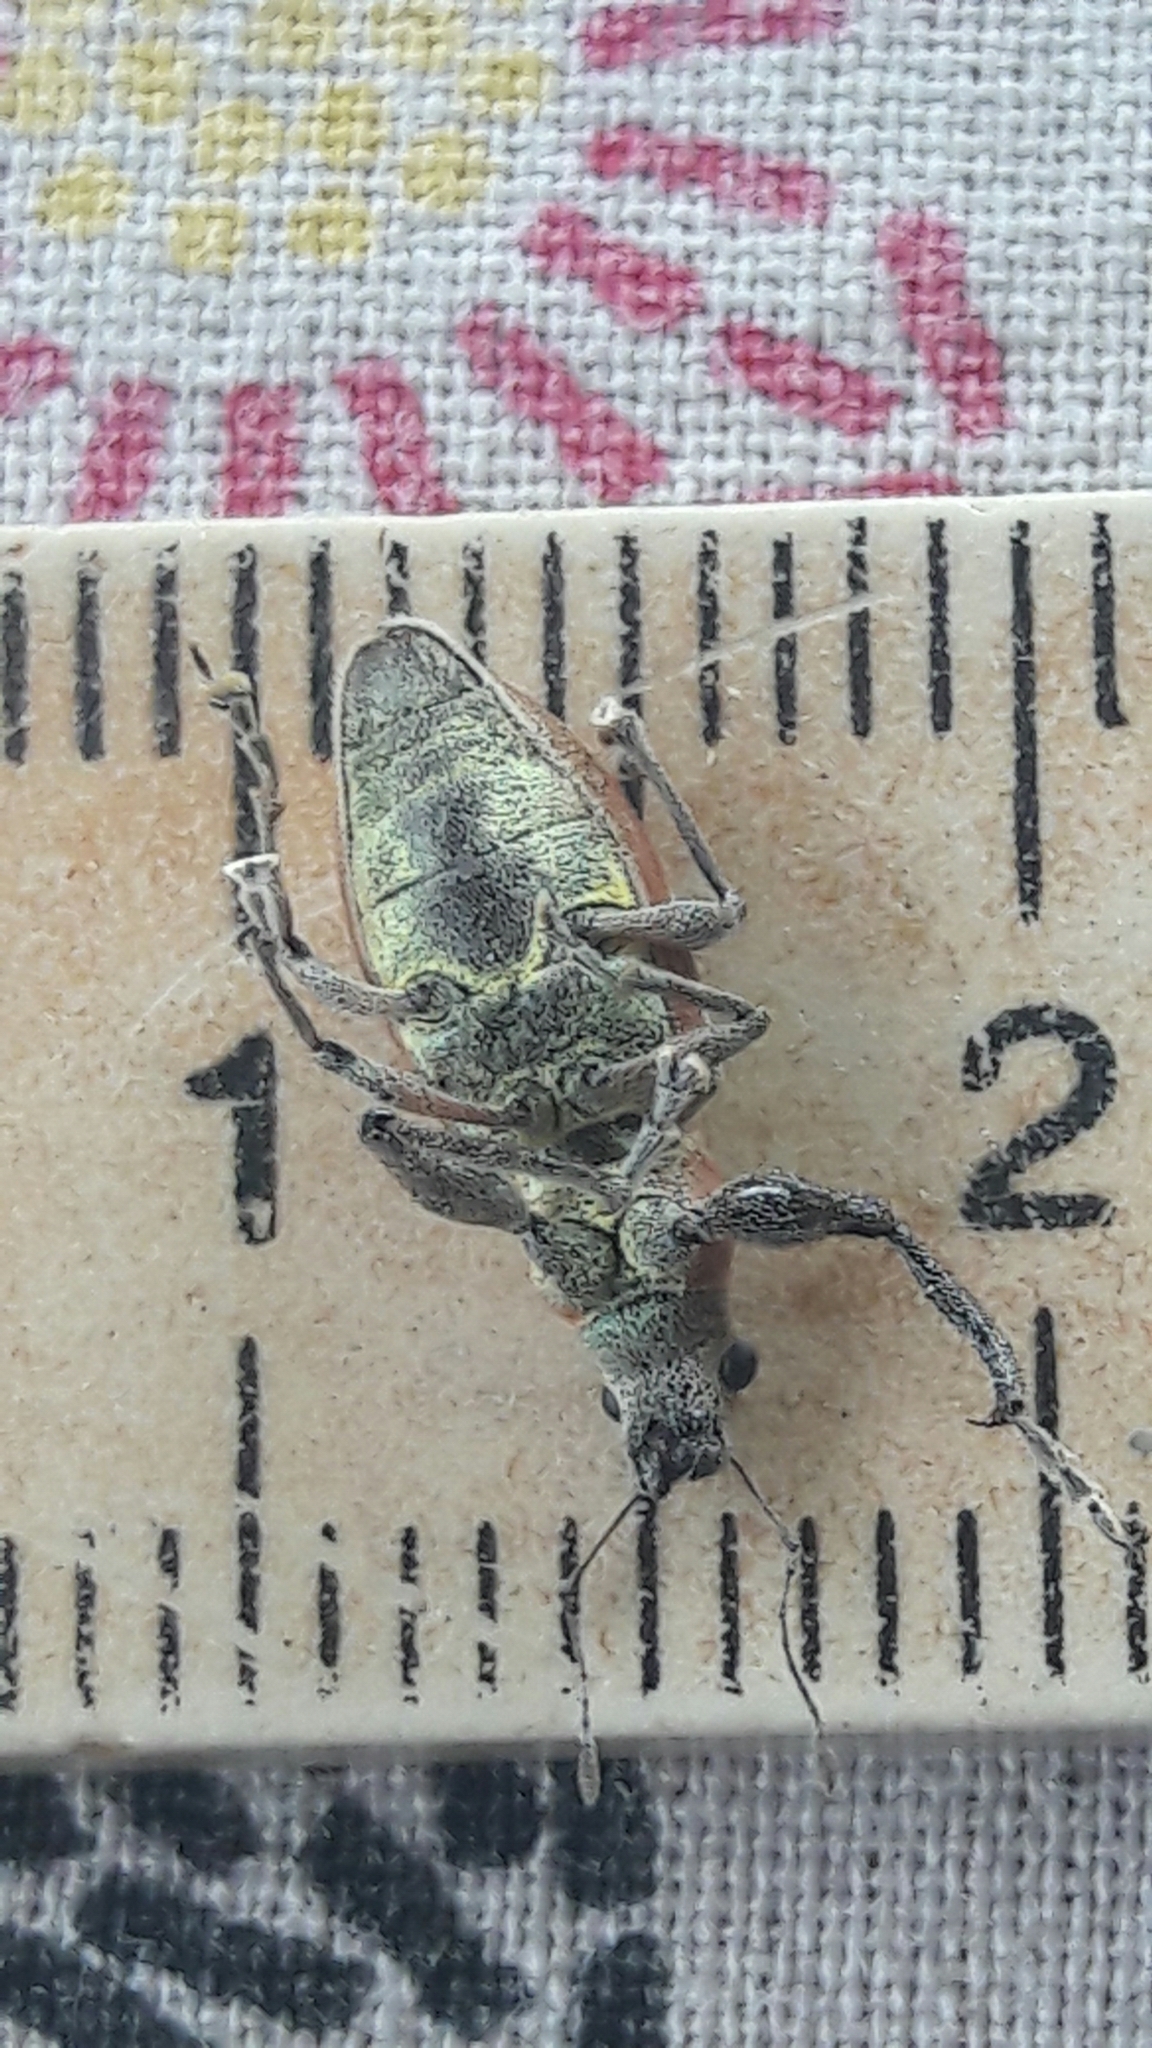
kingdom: Animalia
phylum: Arthropoda
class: Insecta
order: Coleoptera
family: Curculionidae
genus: Naupactus
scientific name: Naupactus bellus
